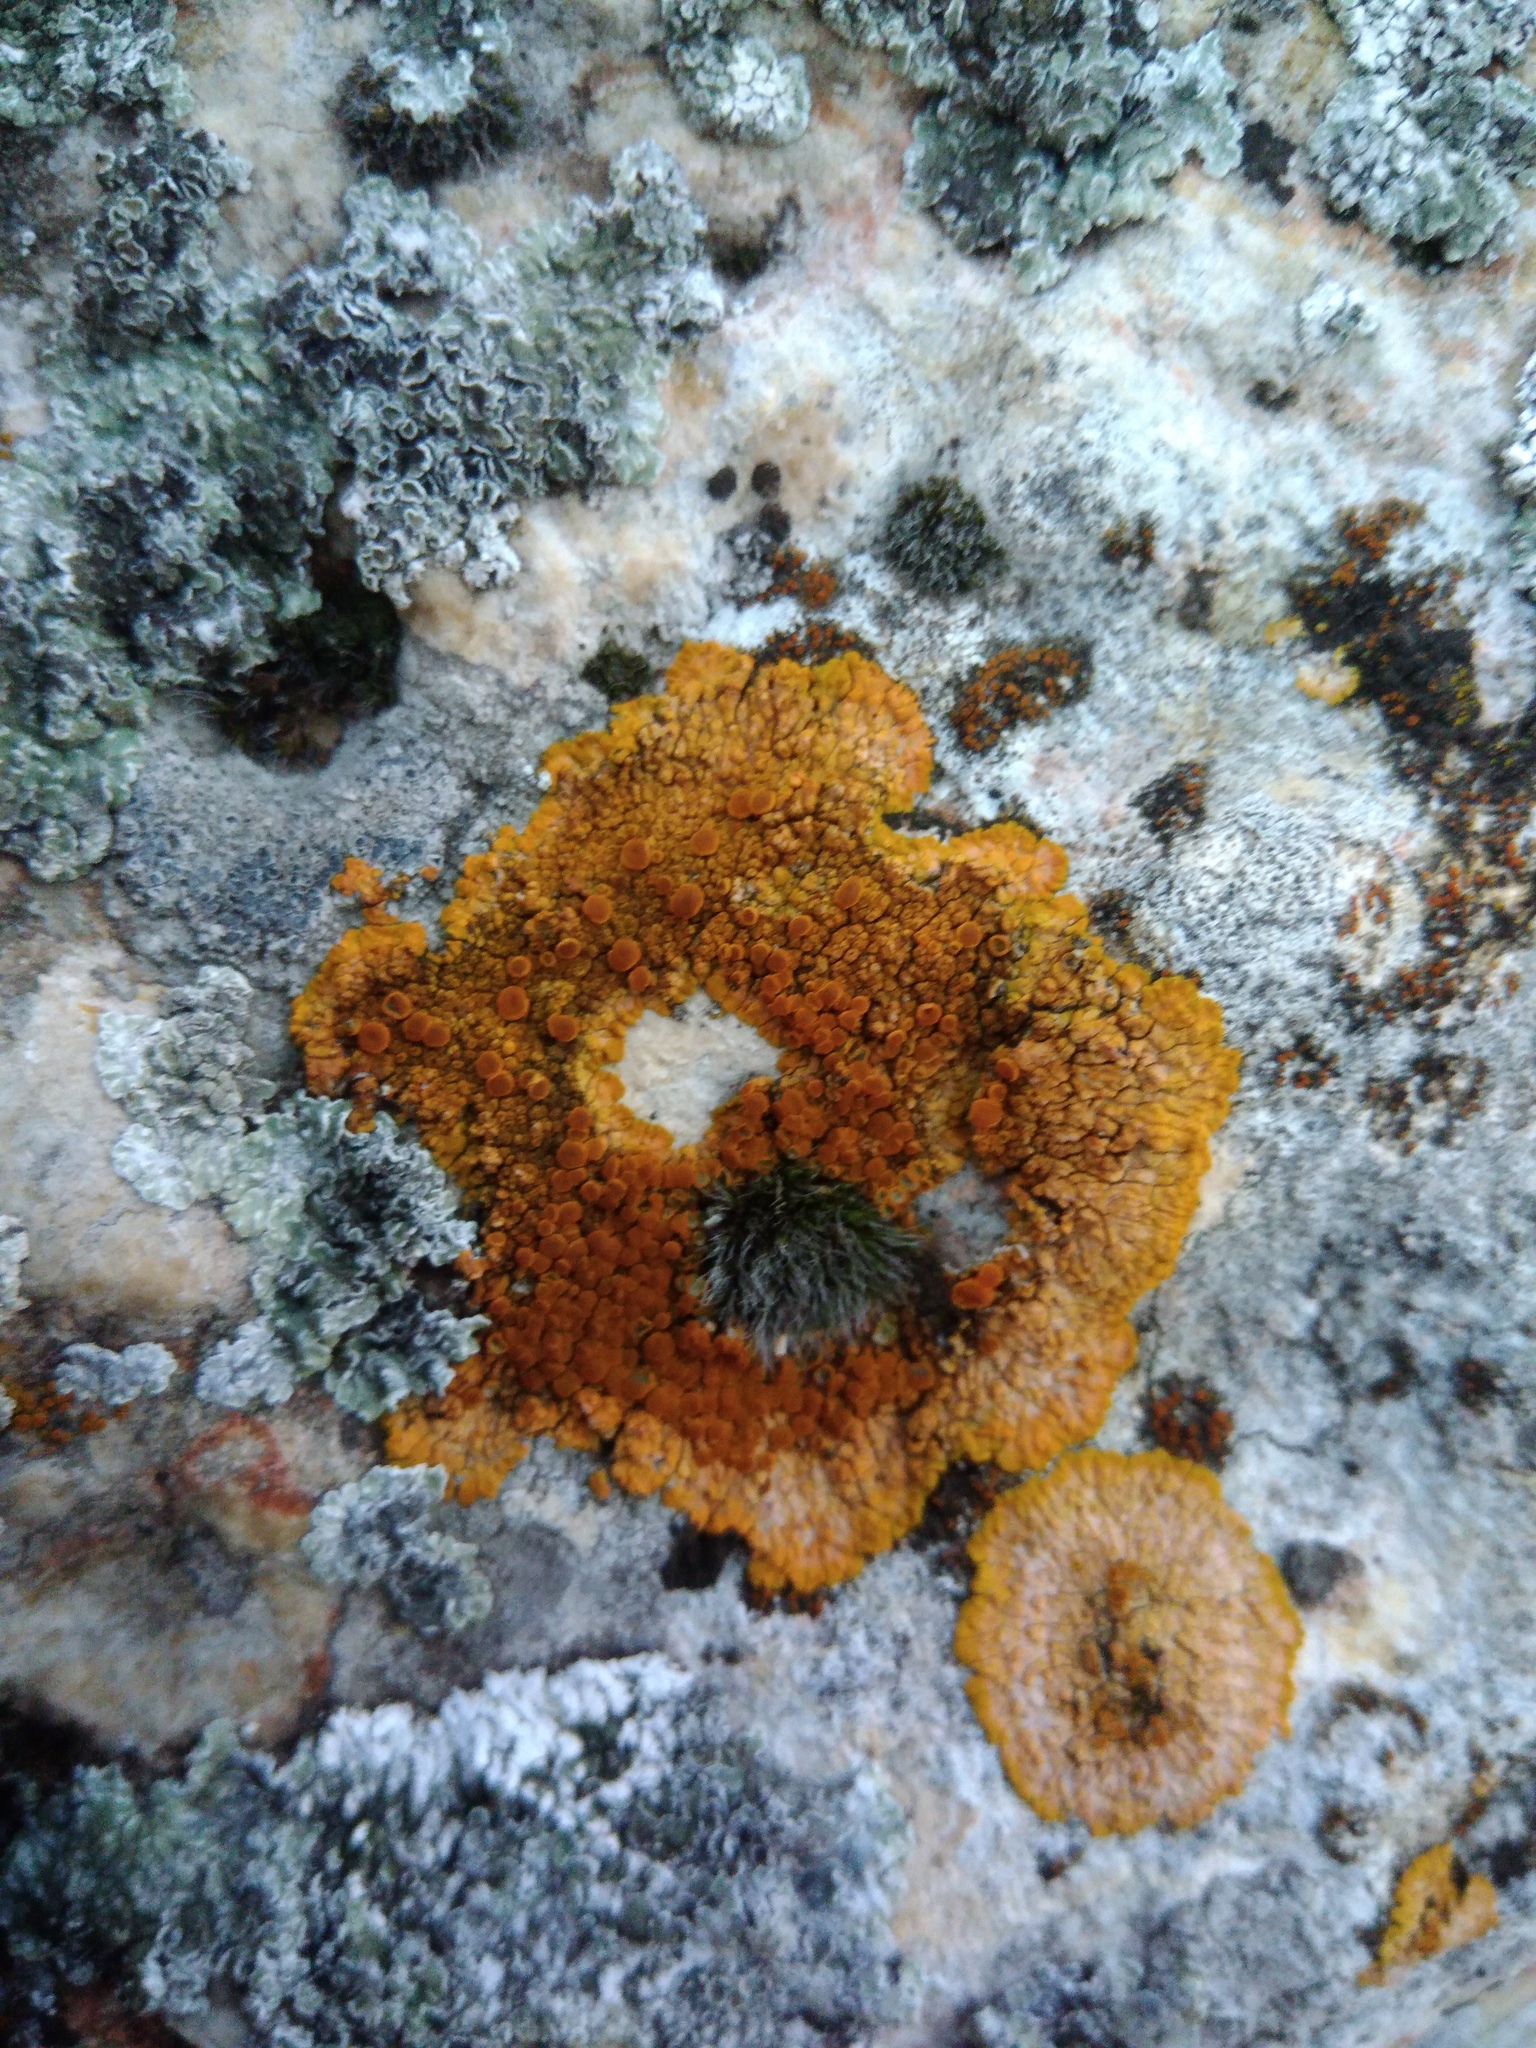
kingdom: Fungi
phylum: Ascomycota
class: Lecanoromycetes
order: Teloschistales
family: Teloschistaceae
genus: Variospora
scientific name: Variospora aurantia
